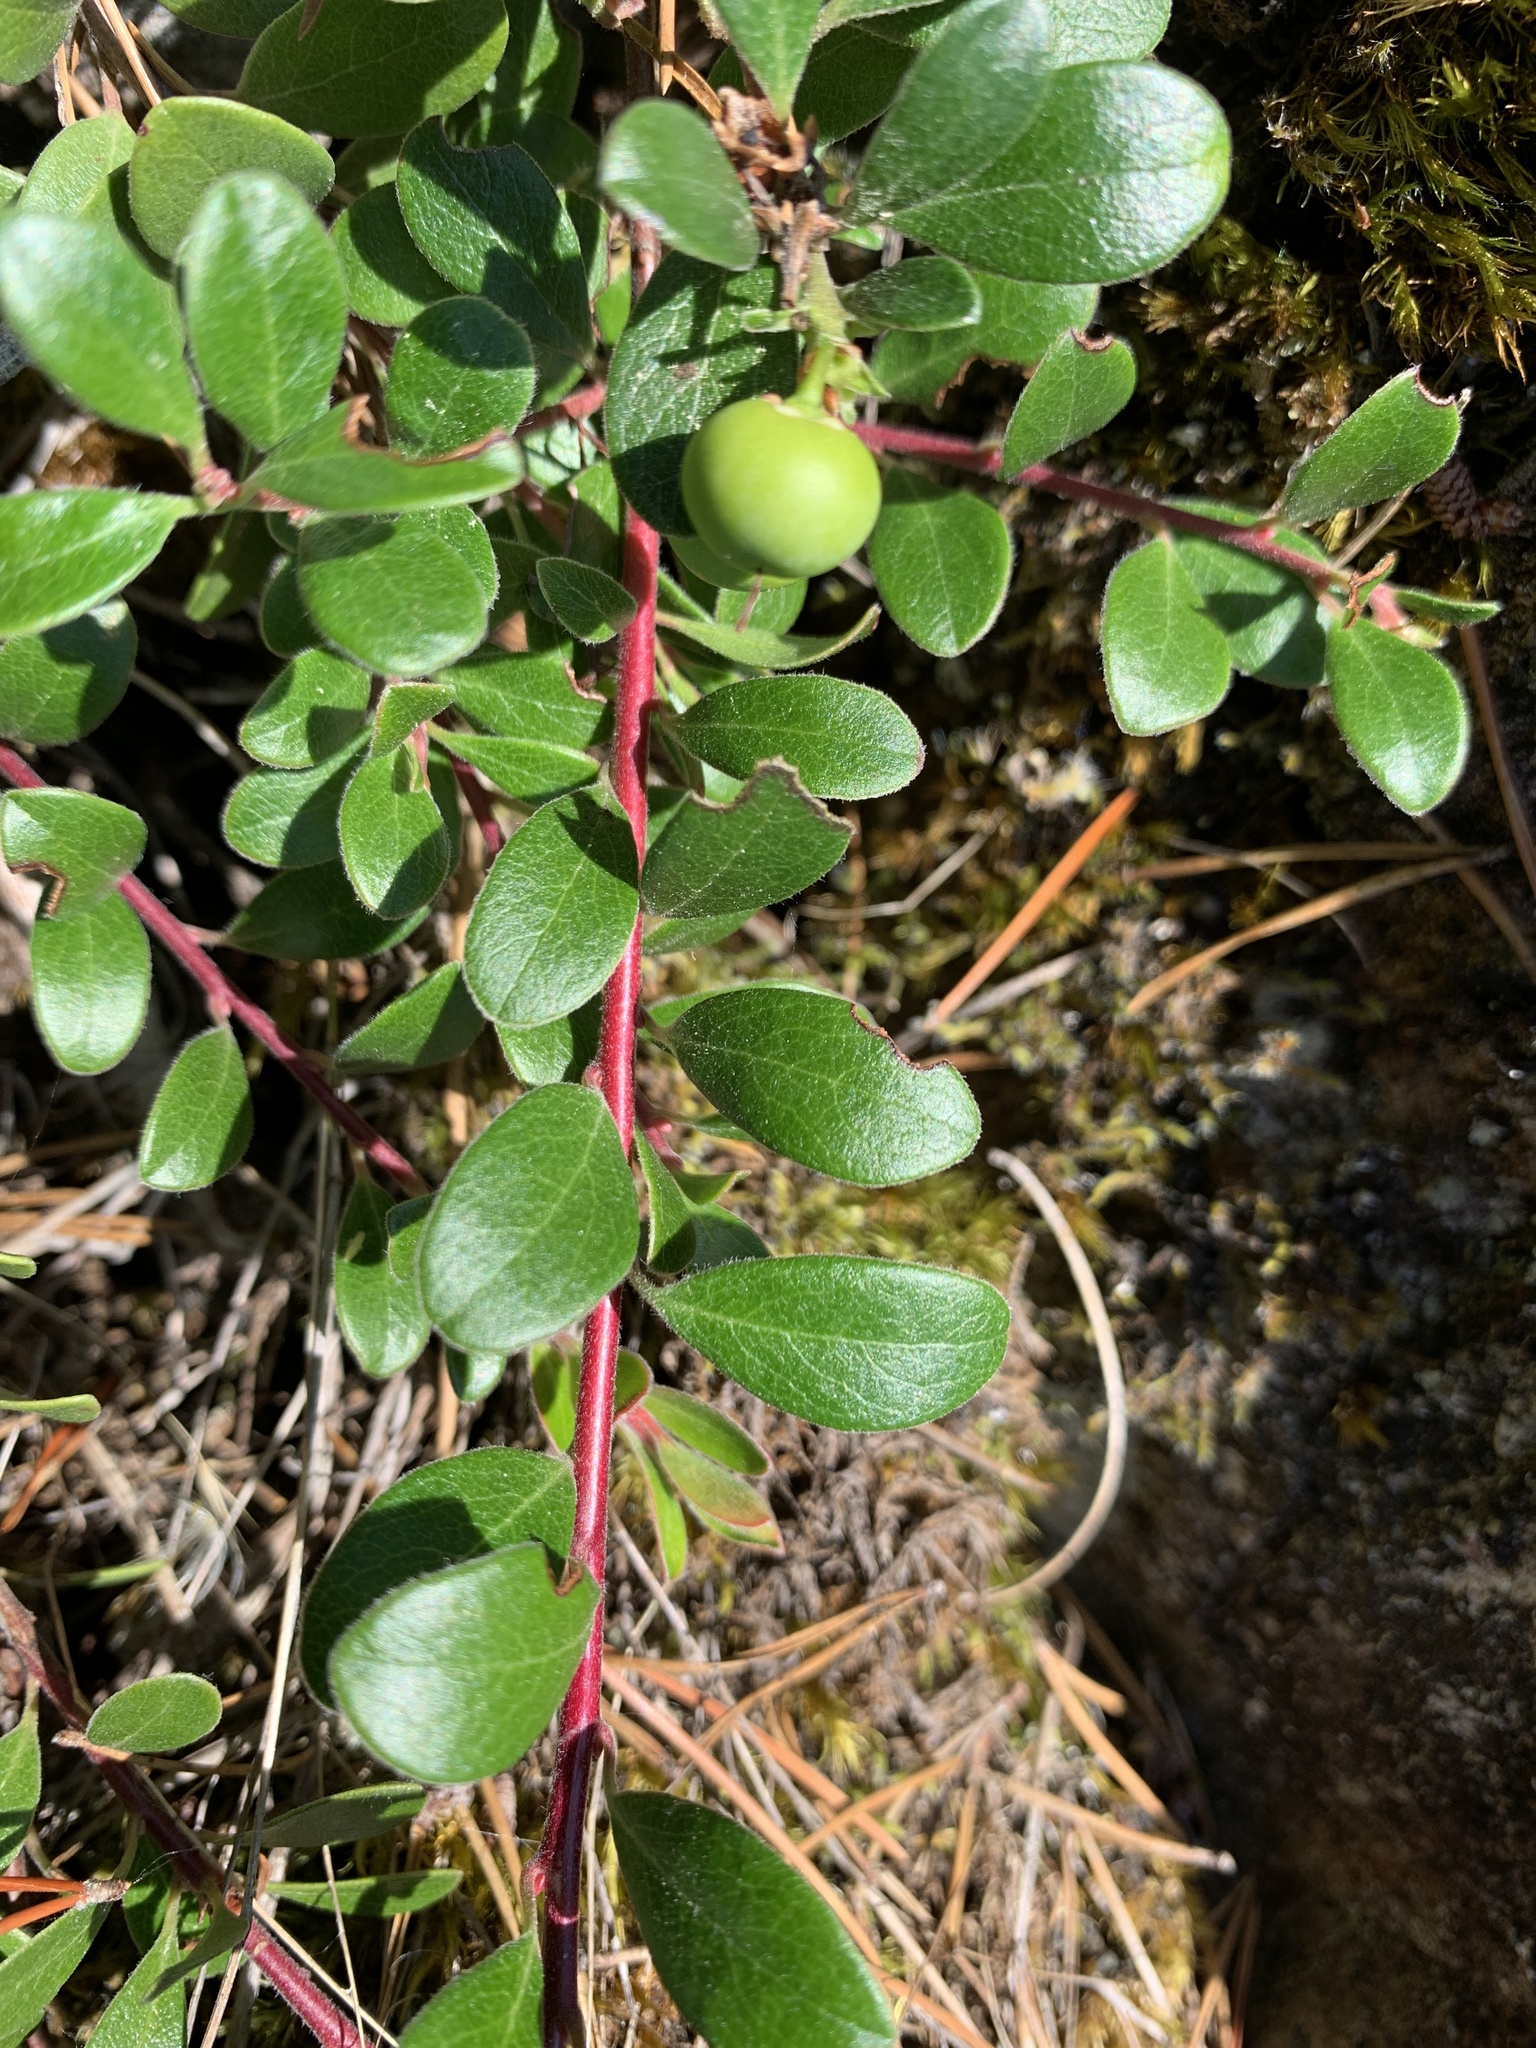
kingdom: Plantae
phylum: Tracheophyta
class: Magnoliopsida
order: Ericales
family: Ericaceae
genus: Arctostaphylos
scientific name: Arctostaphylos uva-ursi
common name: Bearberry
